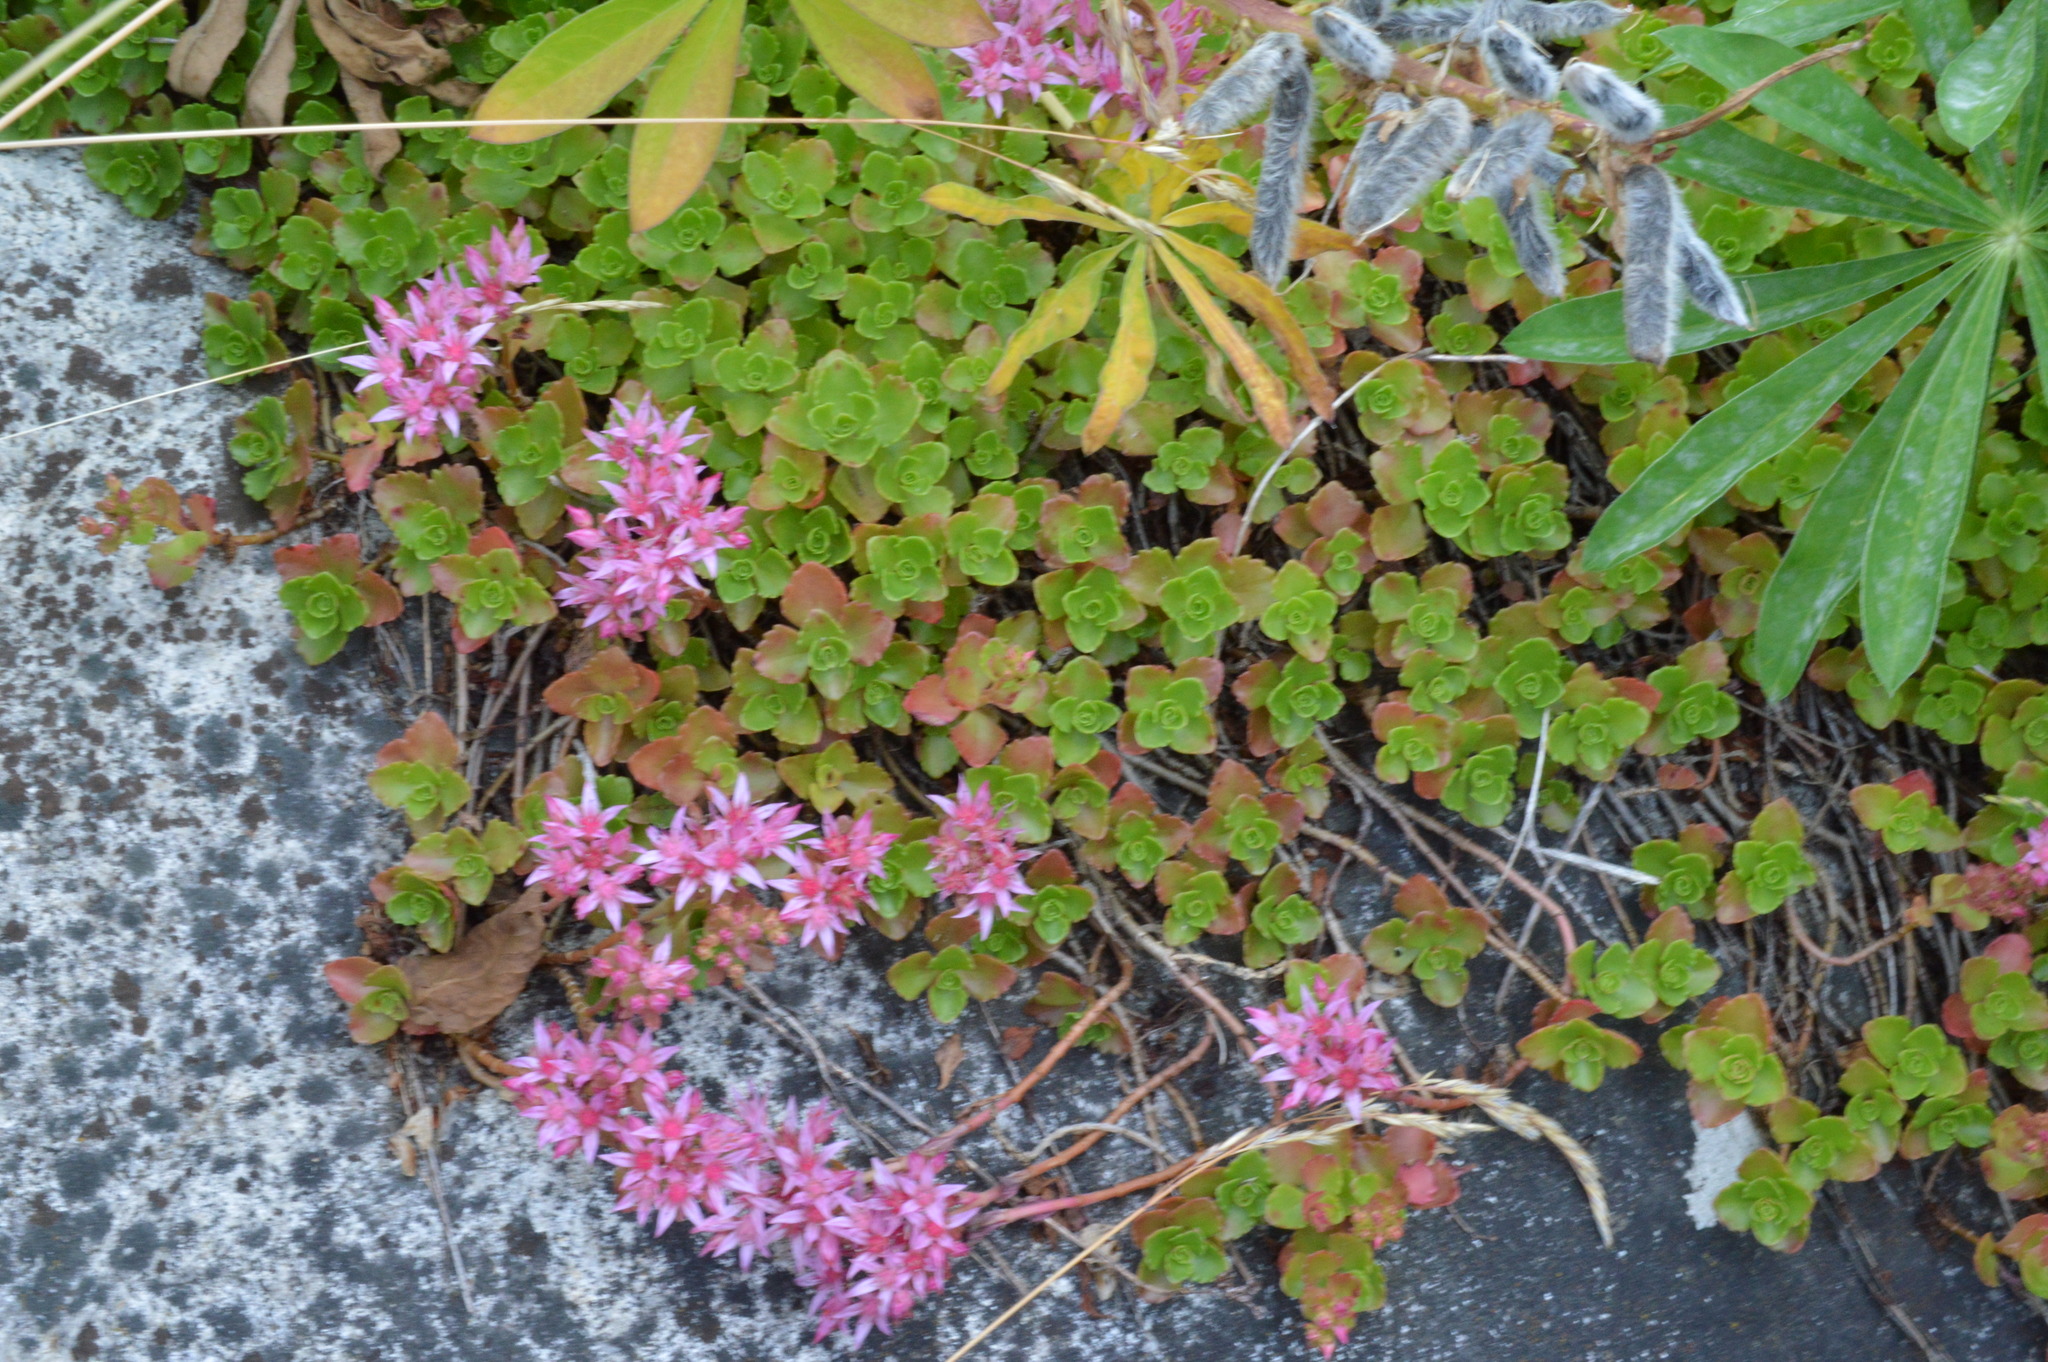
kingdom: Plantae
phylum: Tracheophyta
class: Magnoliopsida
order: Saxifragales
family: Crassulaceae
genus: Phedimus
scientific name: Phedimus spurius
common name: Caucasian stonecrop
